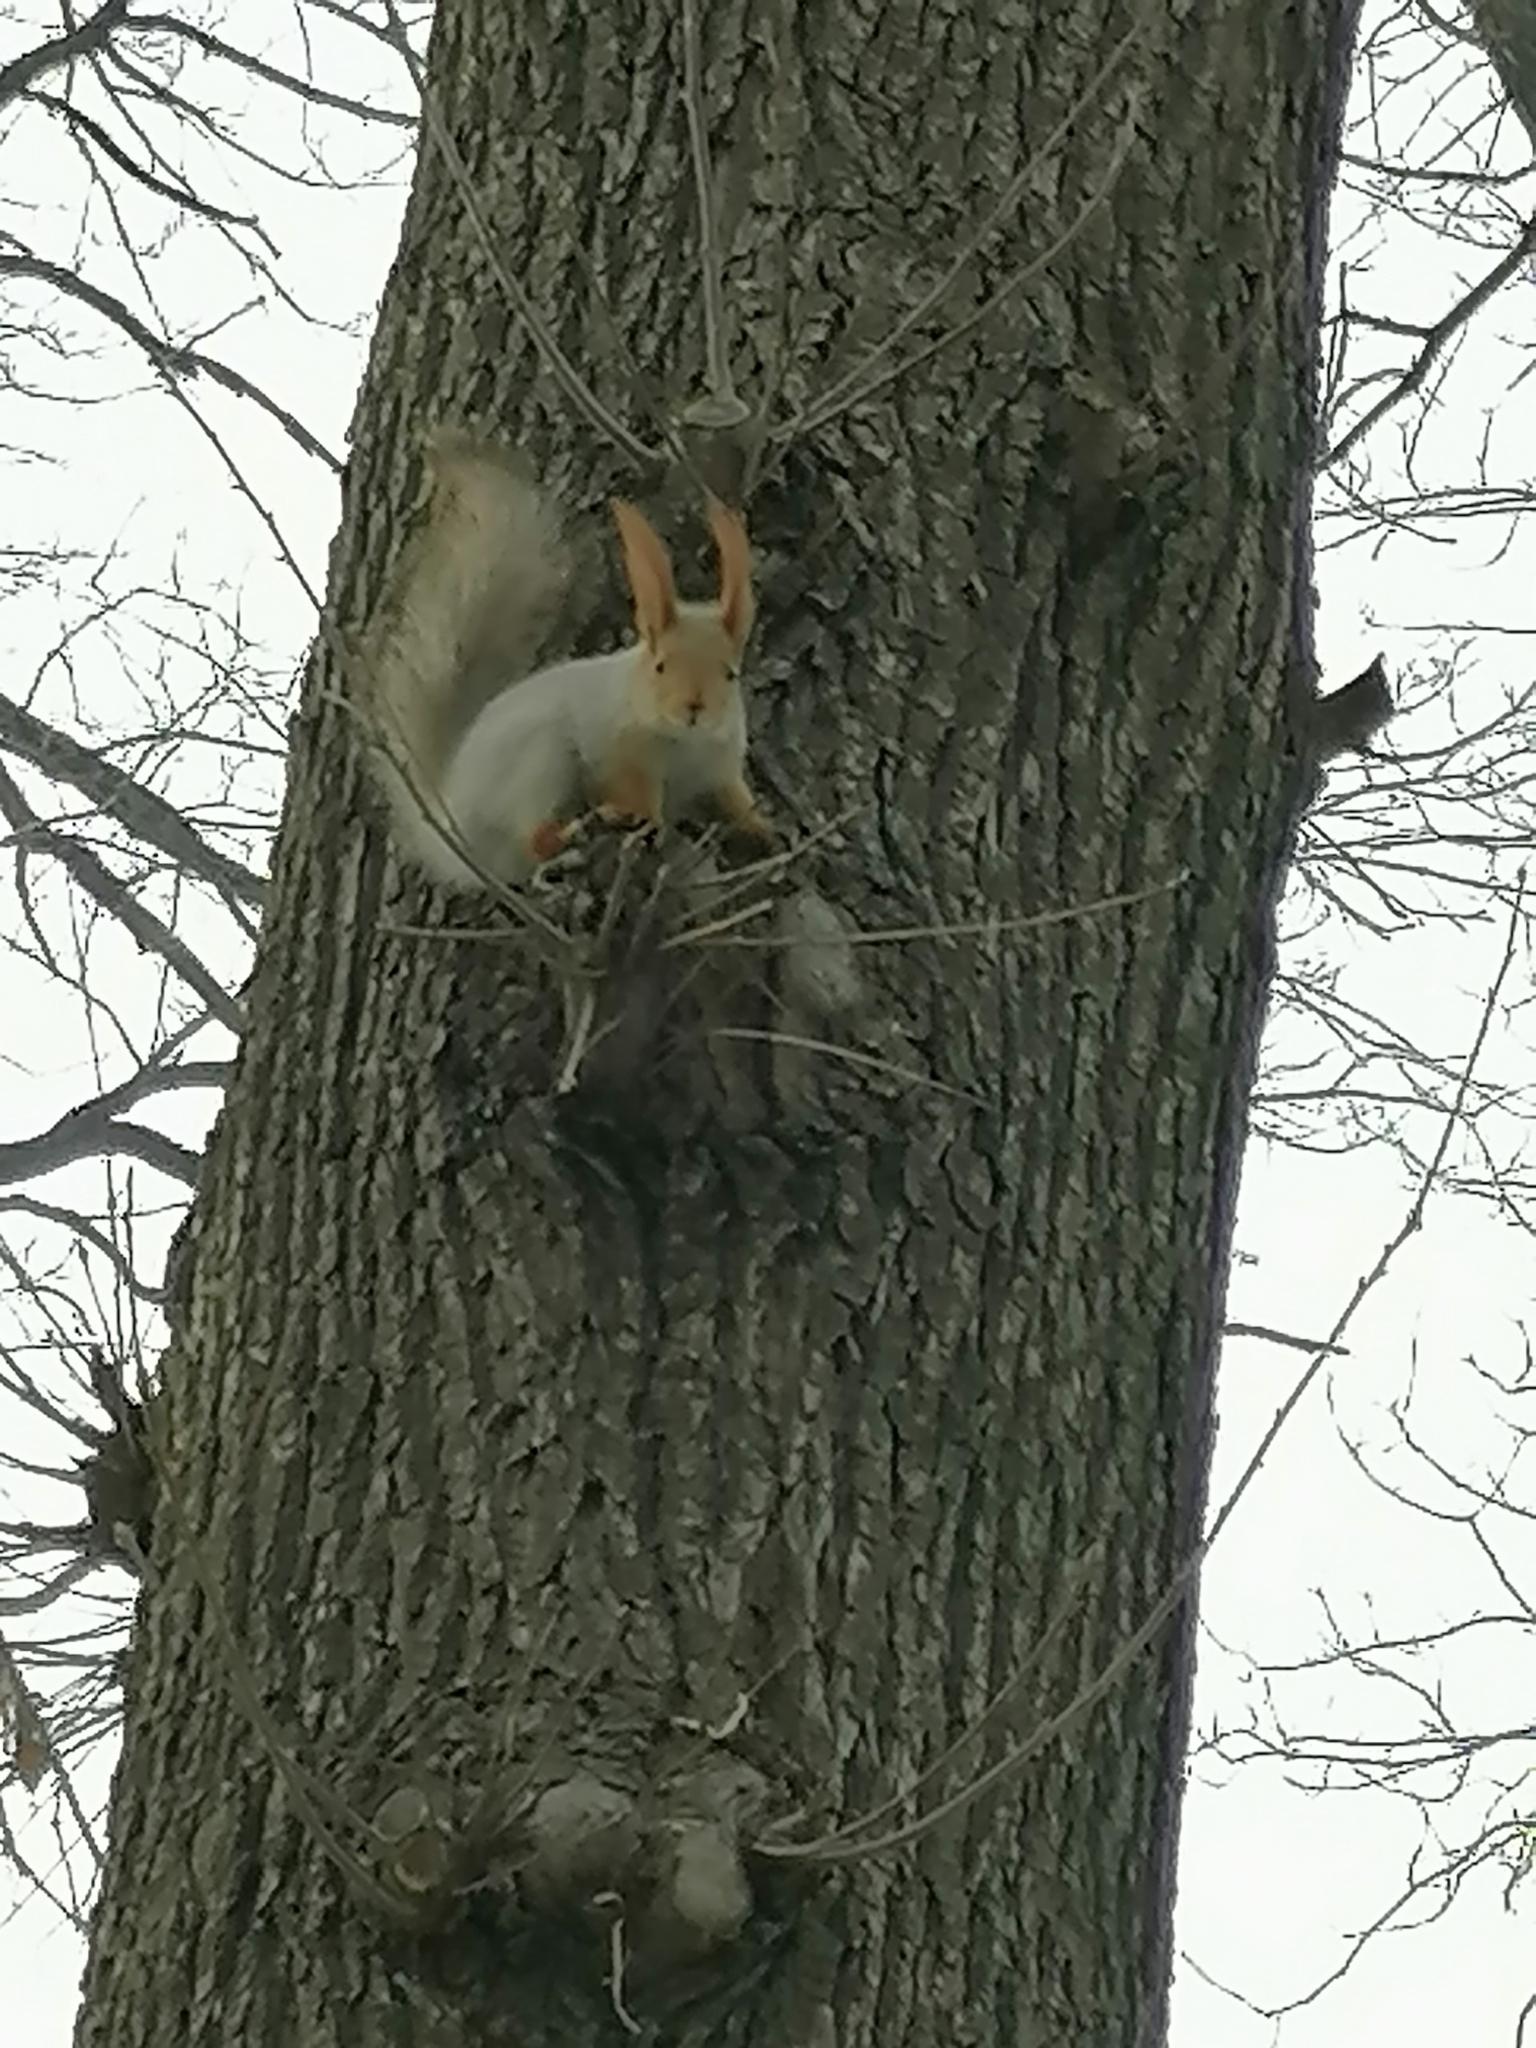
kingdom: Animalia
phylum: Chordata
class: Mammalia
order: Rodentia
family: Sciuridae
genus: Sciurus
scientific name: Sciurus vulgaris
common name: Eurasian red squirrel
